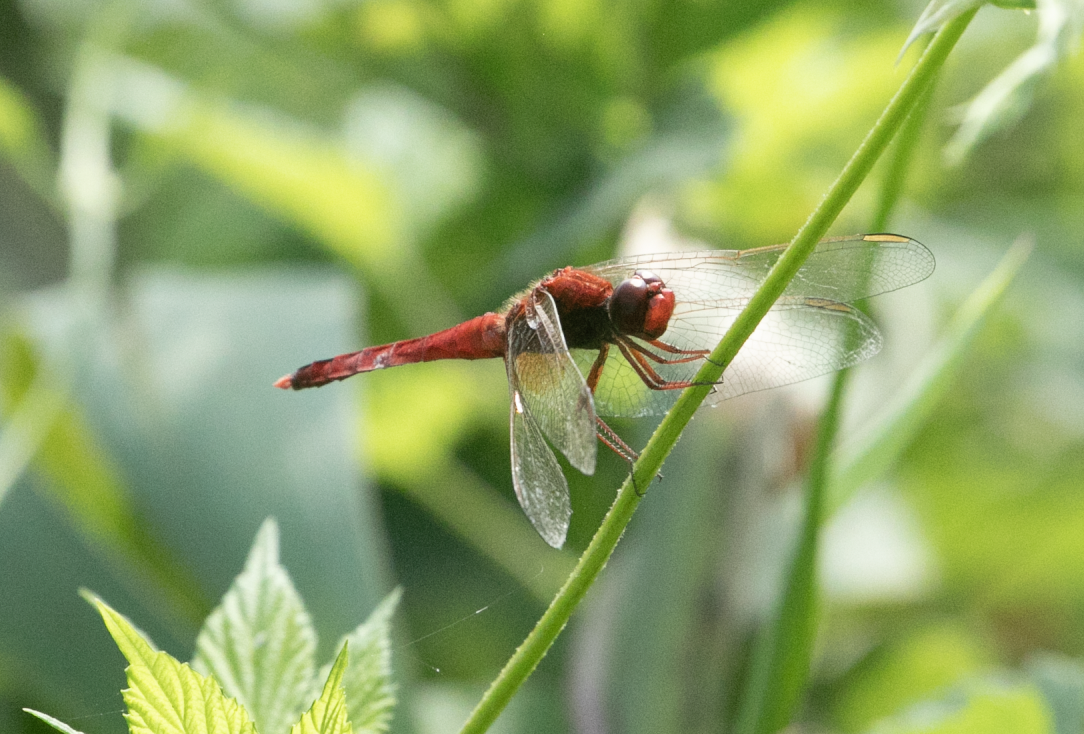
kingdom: Animalia
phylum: Arthropoda
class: Insecta
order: Odonata
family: Libellulidae
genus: Crocothemis
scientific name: Crocothemis erythraea
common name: Scarlet dragonfly
